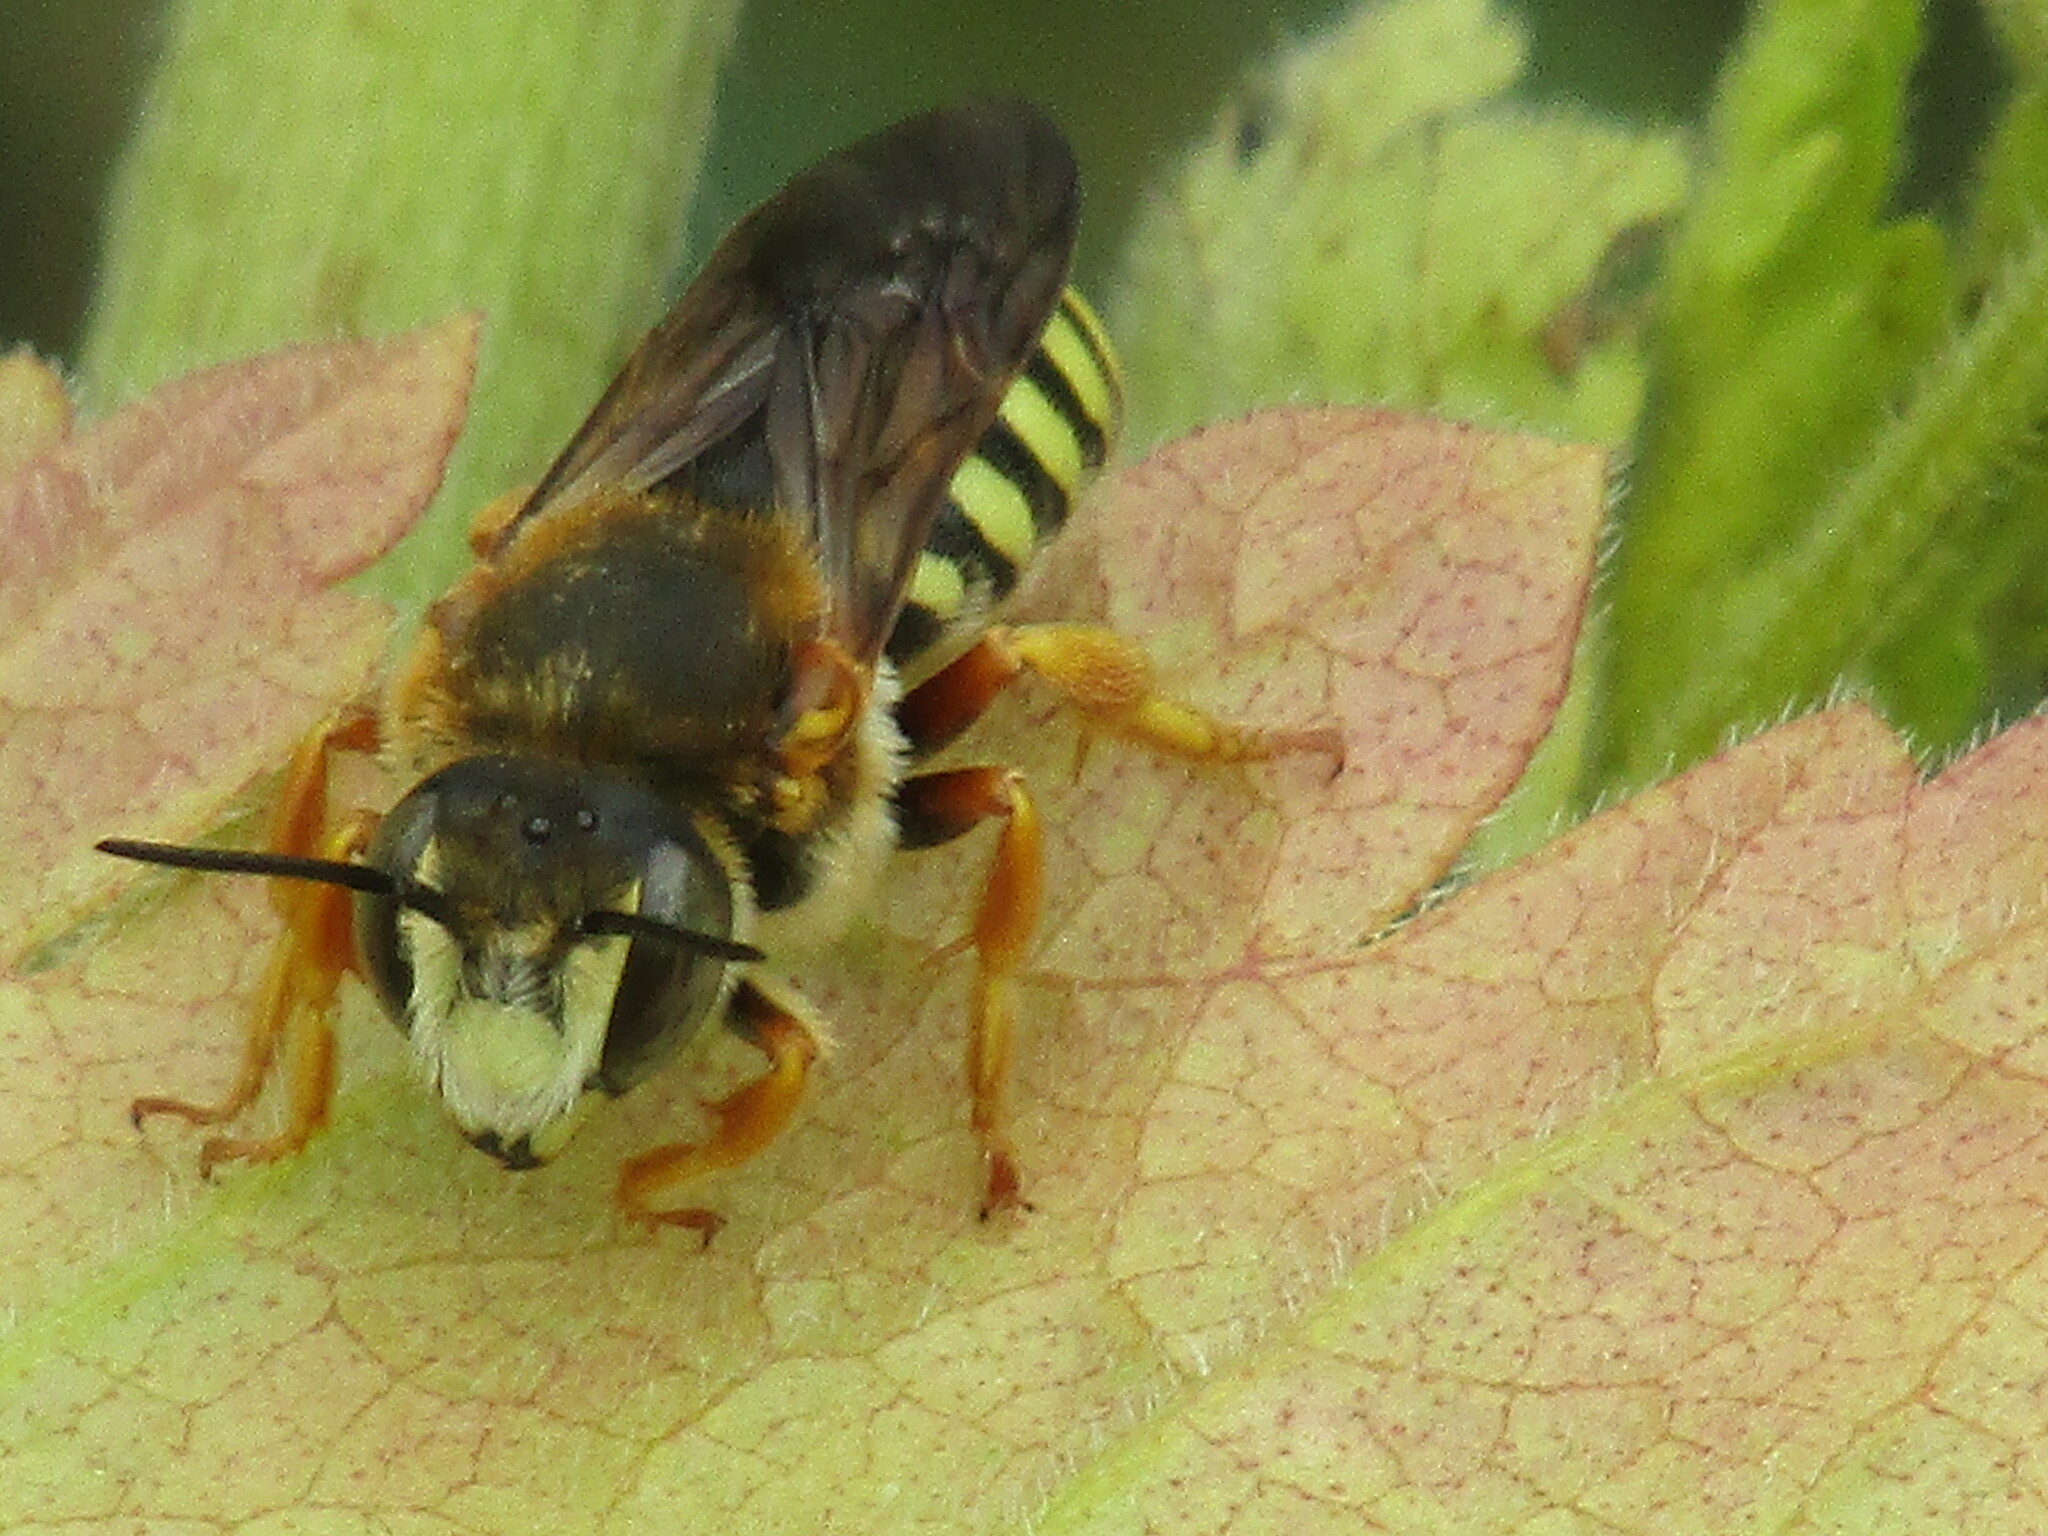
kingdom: Animalia
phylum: Arthropoda
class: Insecta
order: Hymenoptera
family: Megachilidae
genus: Rhodanthidium
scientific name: Rhodanthidium septemdentatum
